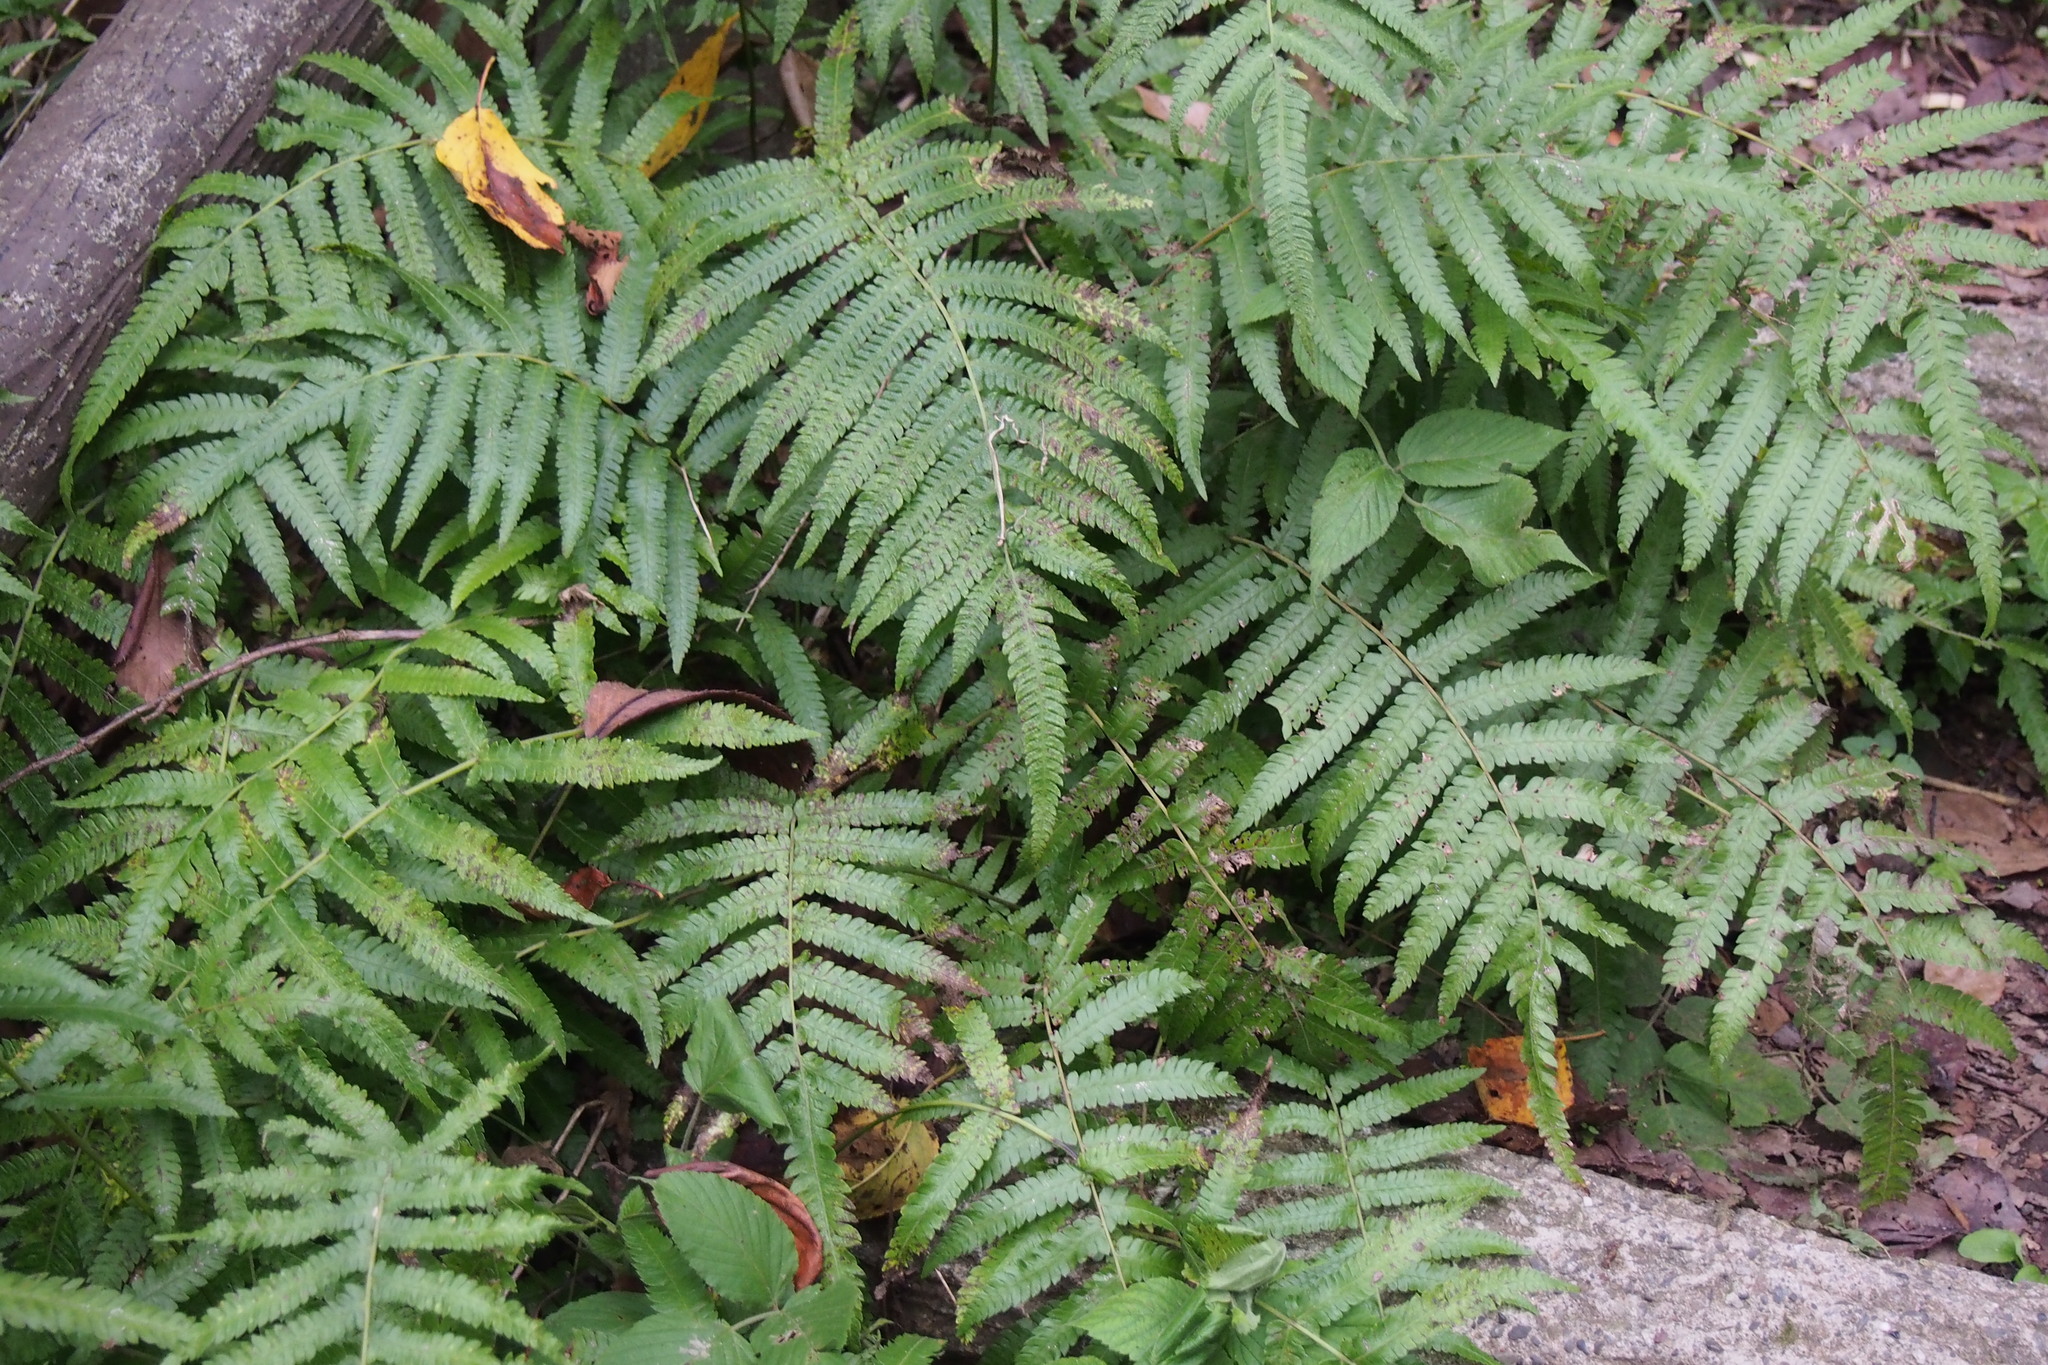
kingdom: Plantae
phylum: Tracheophyta
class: Polypodiopsida
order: Polypodiales
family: Thelypteridaceae
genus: Christella
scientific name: Christella acuminata
